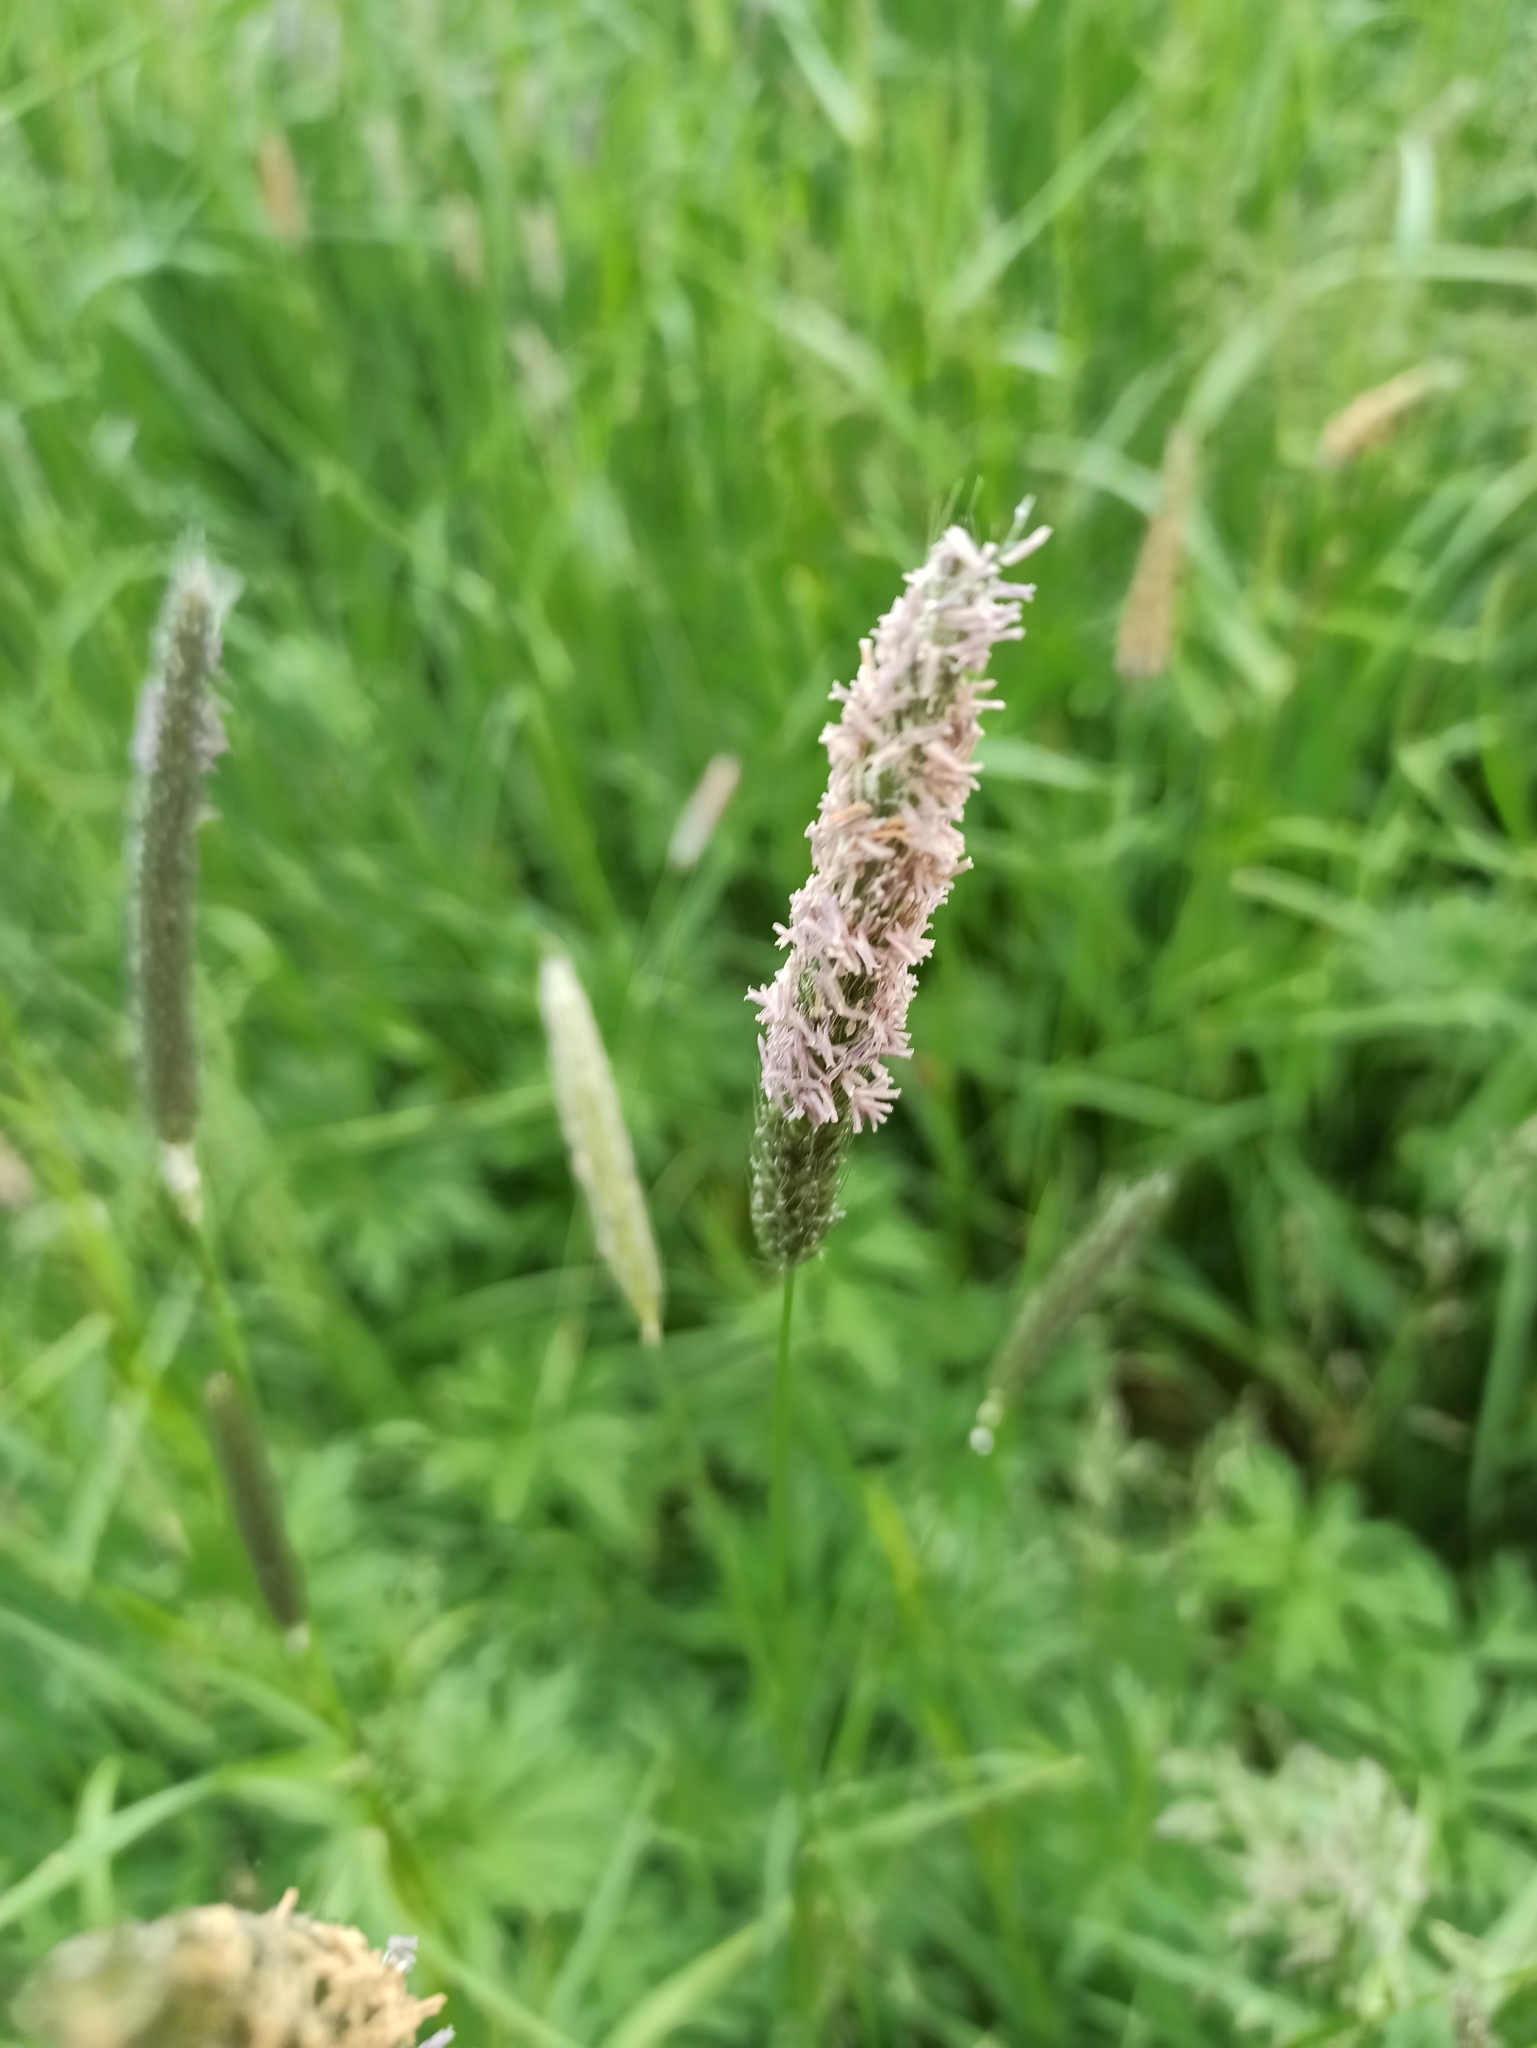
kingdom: Plantae
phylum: Tracheophyta
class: Liliopsida
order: Poales
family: Poaceae
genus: Alopecurus
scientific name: Alopecurus pratensis
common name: Meadow foxtail
